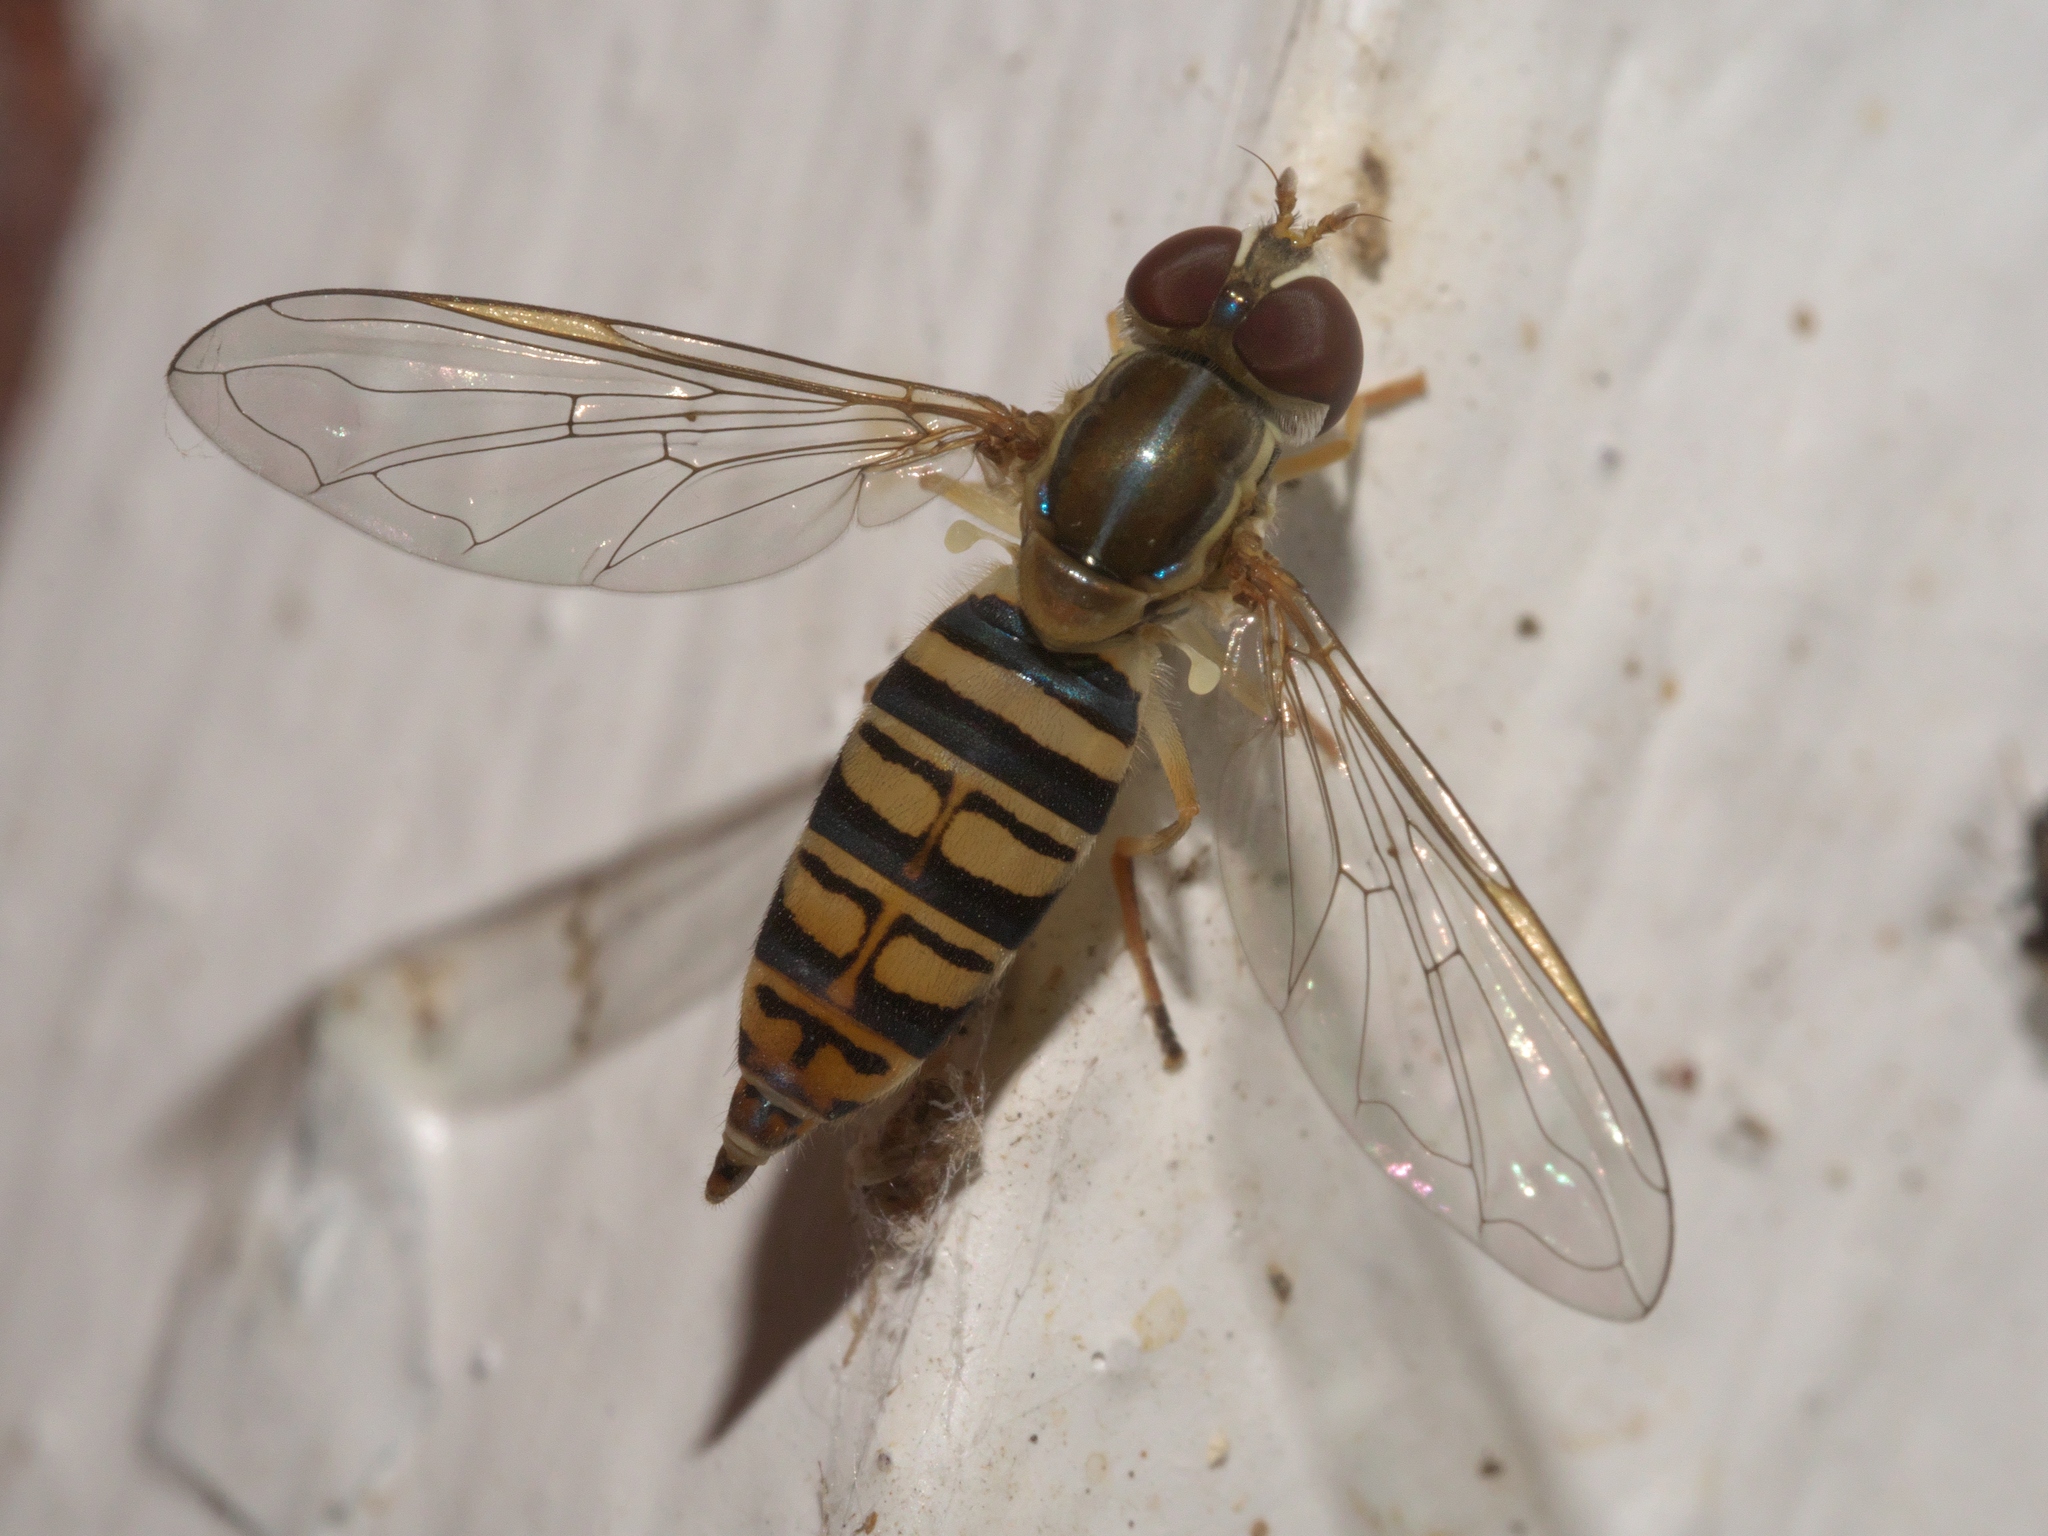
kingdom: Animalia
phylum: Arthropoda
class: Insecta
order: Diptera
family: Syrphidae
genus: Toxomerus
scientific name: Toxomerus politus
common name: Maize calligrapher
